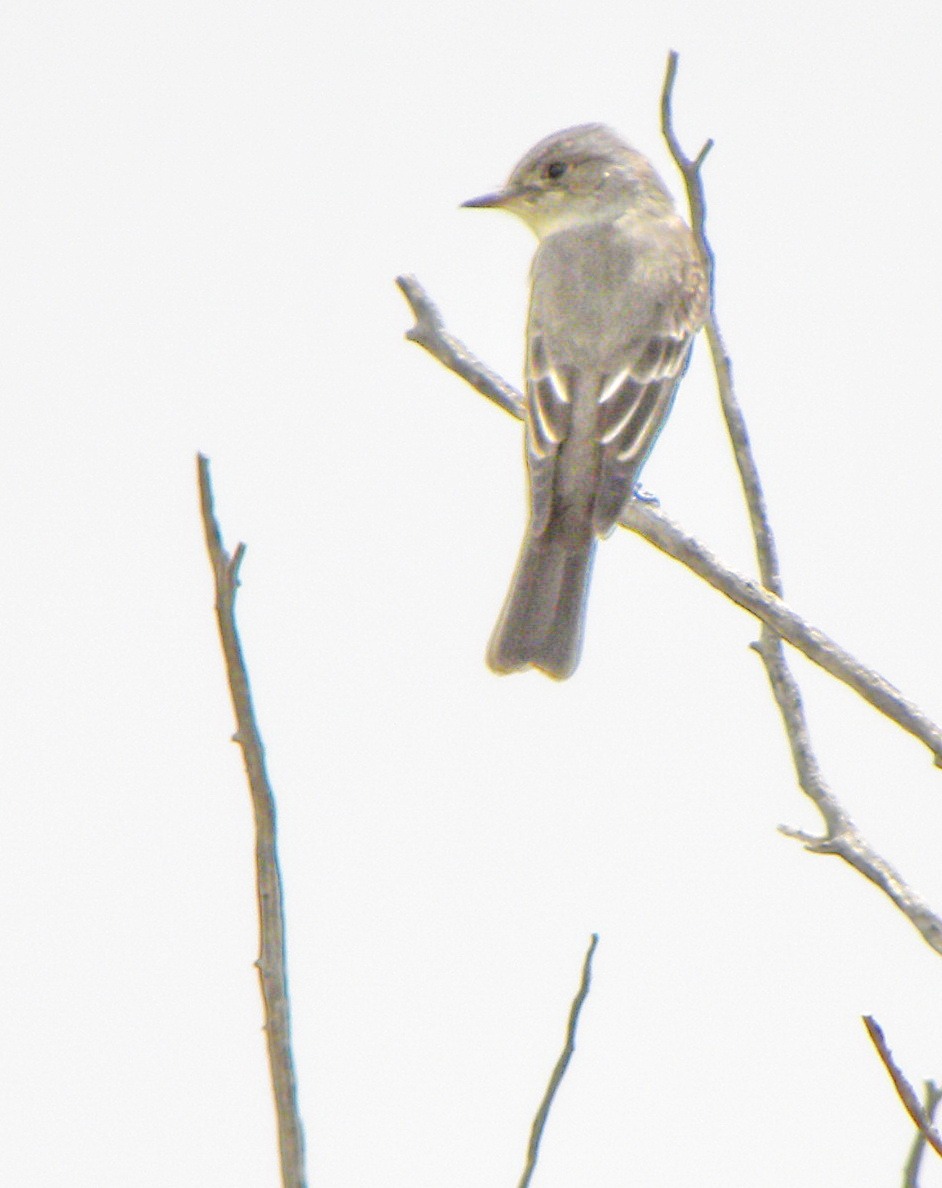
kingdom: Animalia
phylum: Chordata
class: Aves
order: Passeriformes
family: Tyrannidae
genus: Contopus
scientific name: Contopus sordidulus
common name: Western wood-pewee
